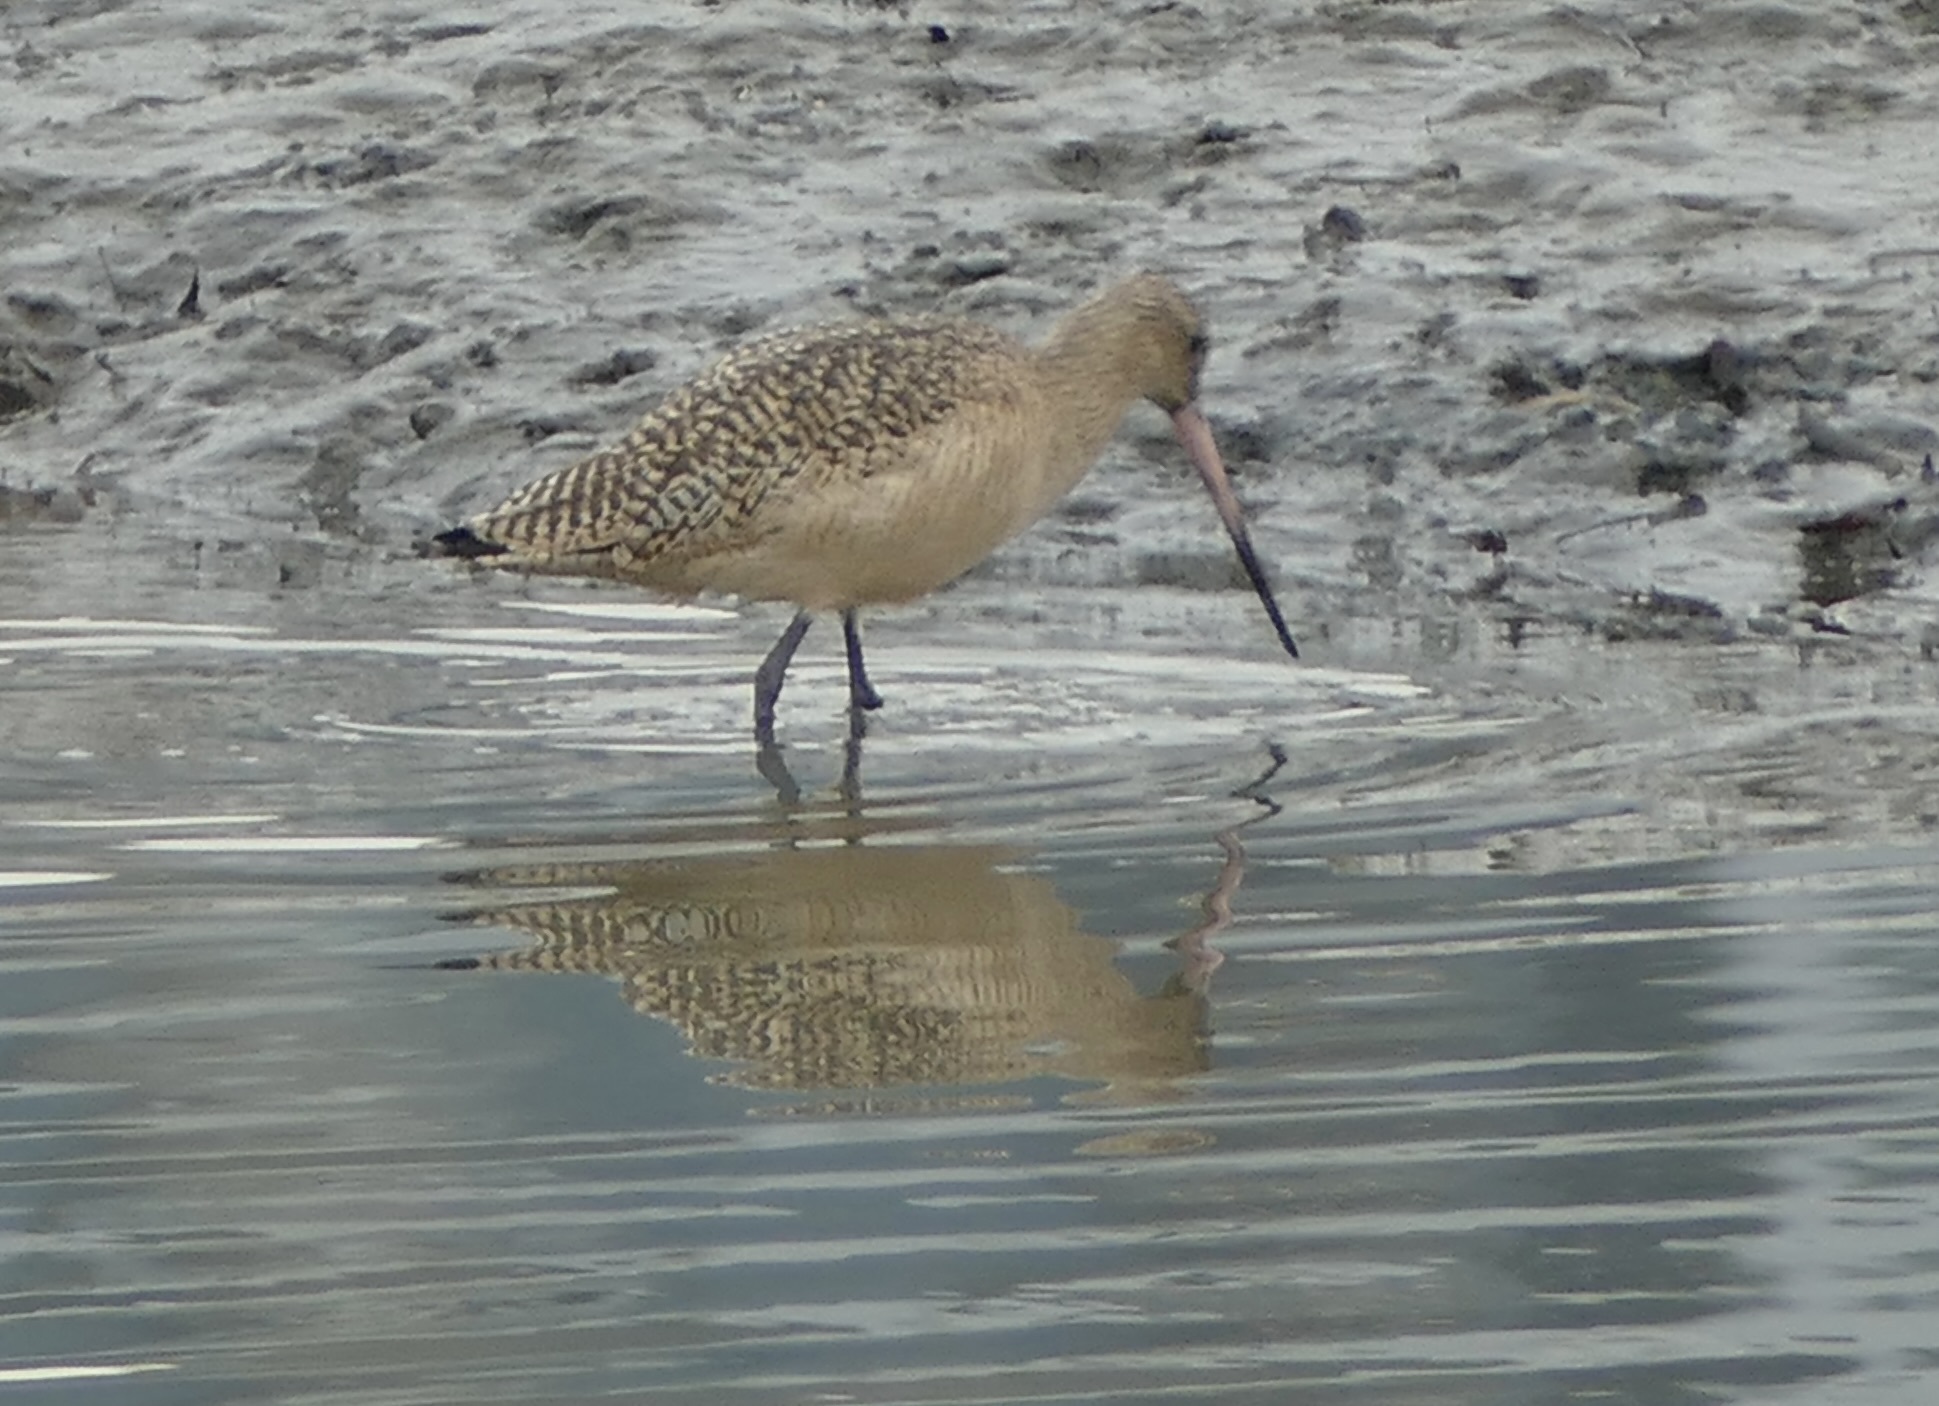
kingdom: Animalia
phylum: Chordata
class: Aves
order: Charadriiformes
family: Scolopacidae
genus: Limosa
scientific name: Limosa fedoa
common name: Marbled godwit
